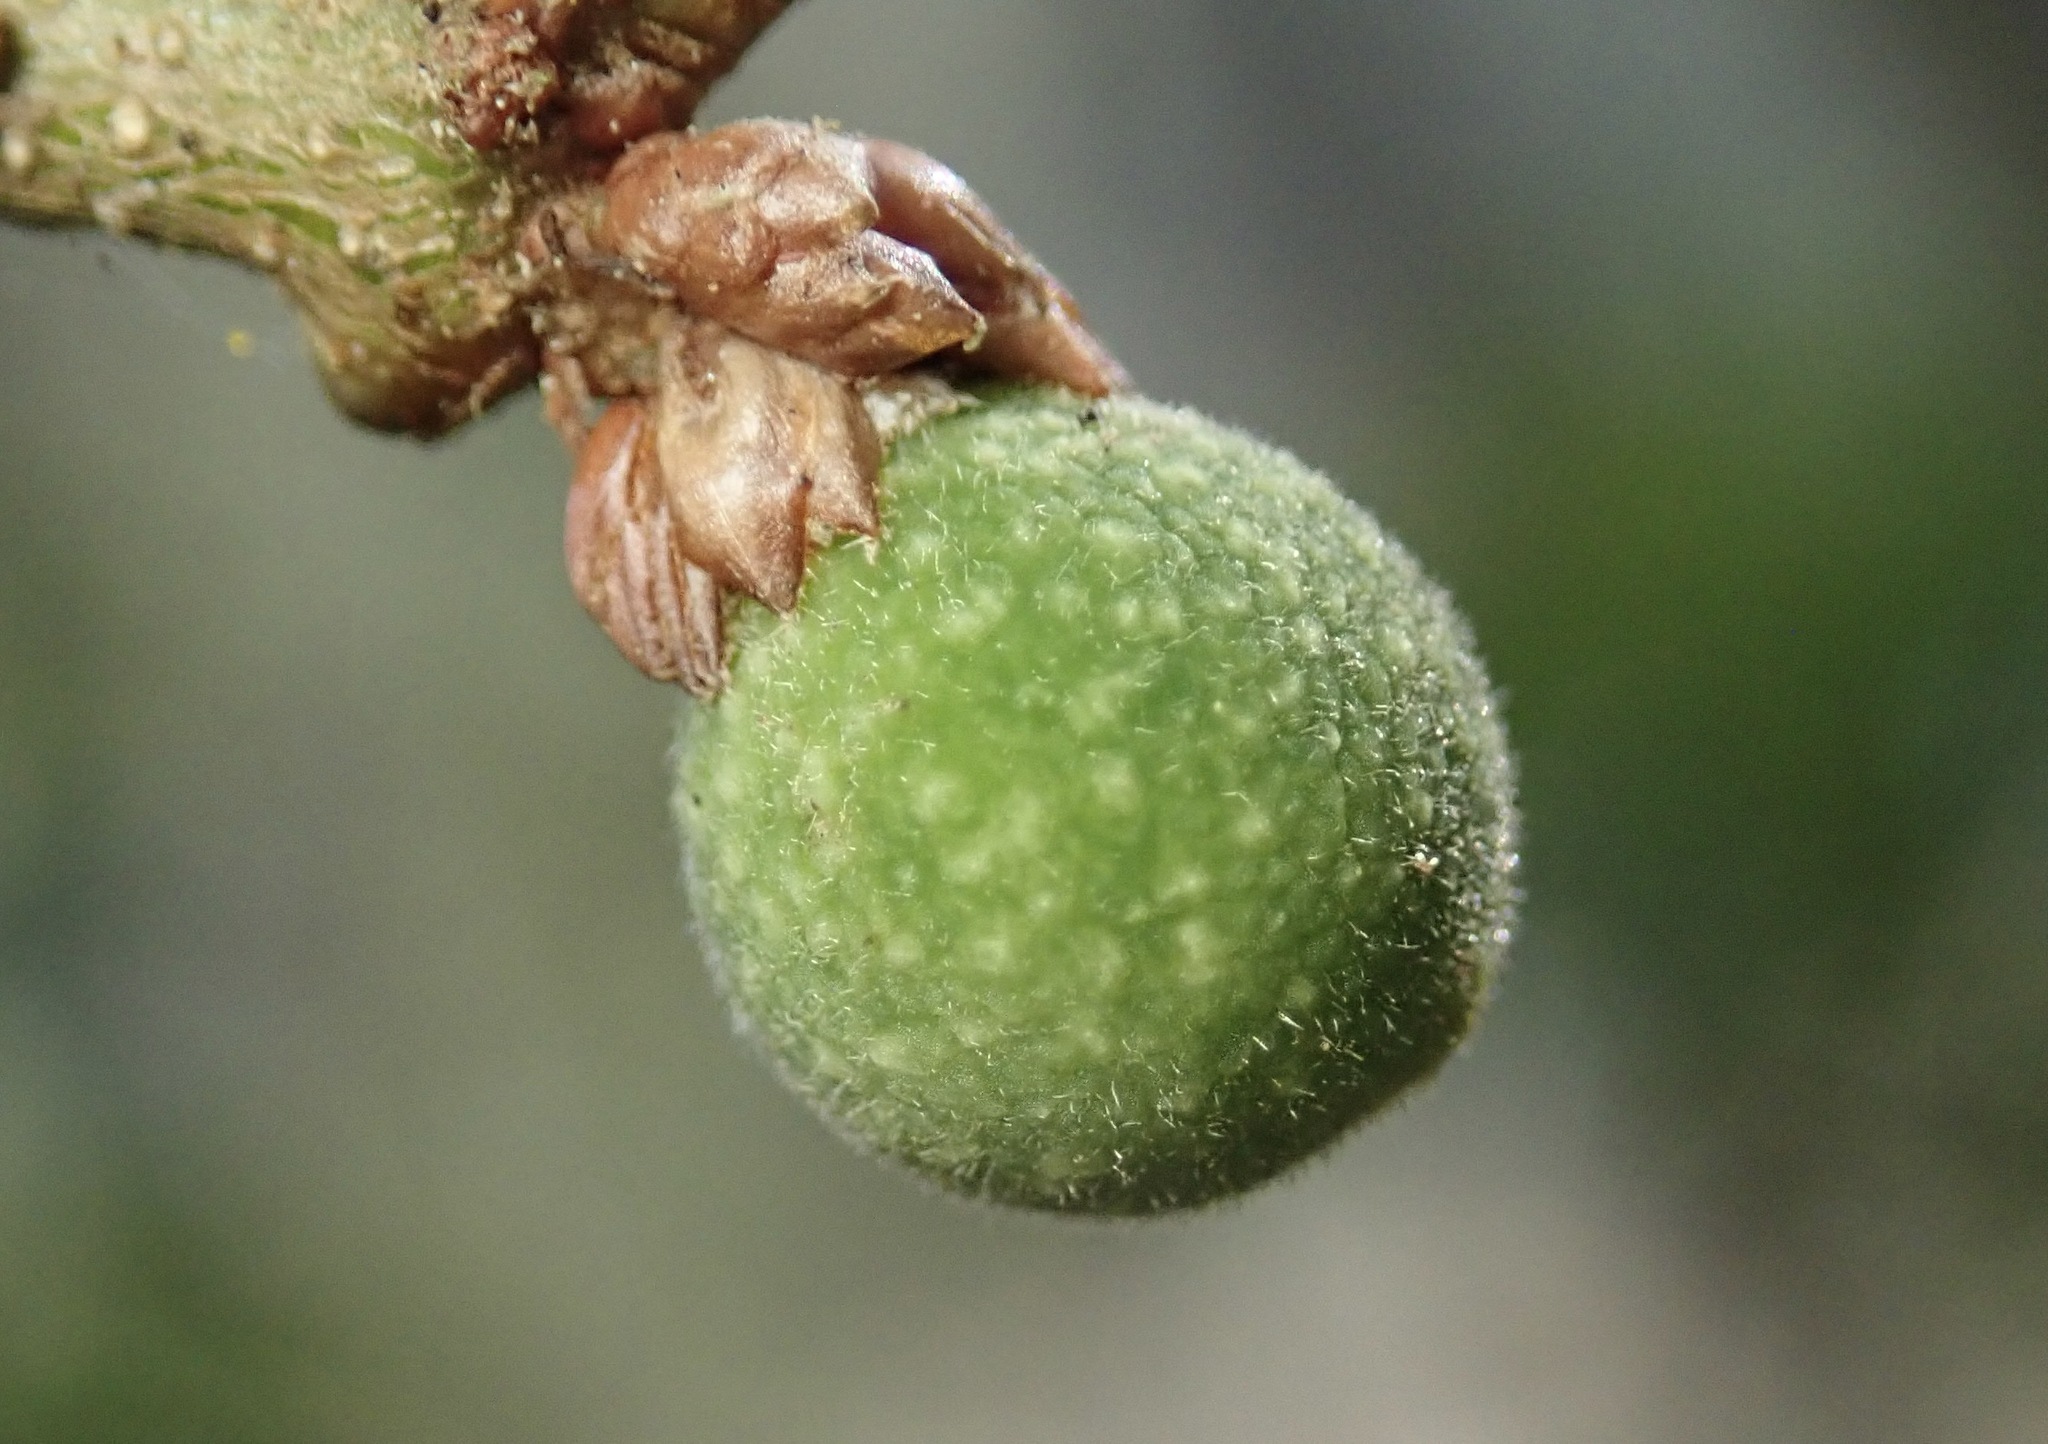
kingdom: Animalia
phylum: Arthropoda
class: Insecta
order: Hymenoptera
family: Cynipidae
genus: Callirhytis
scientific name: Callirhytis
